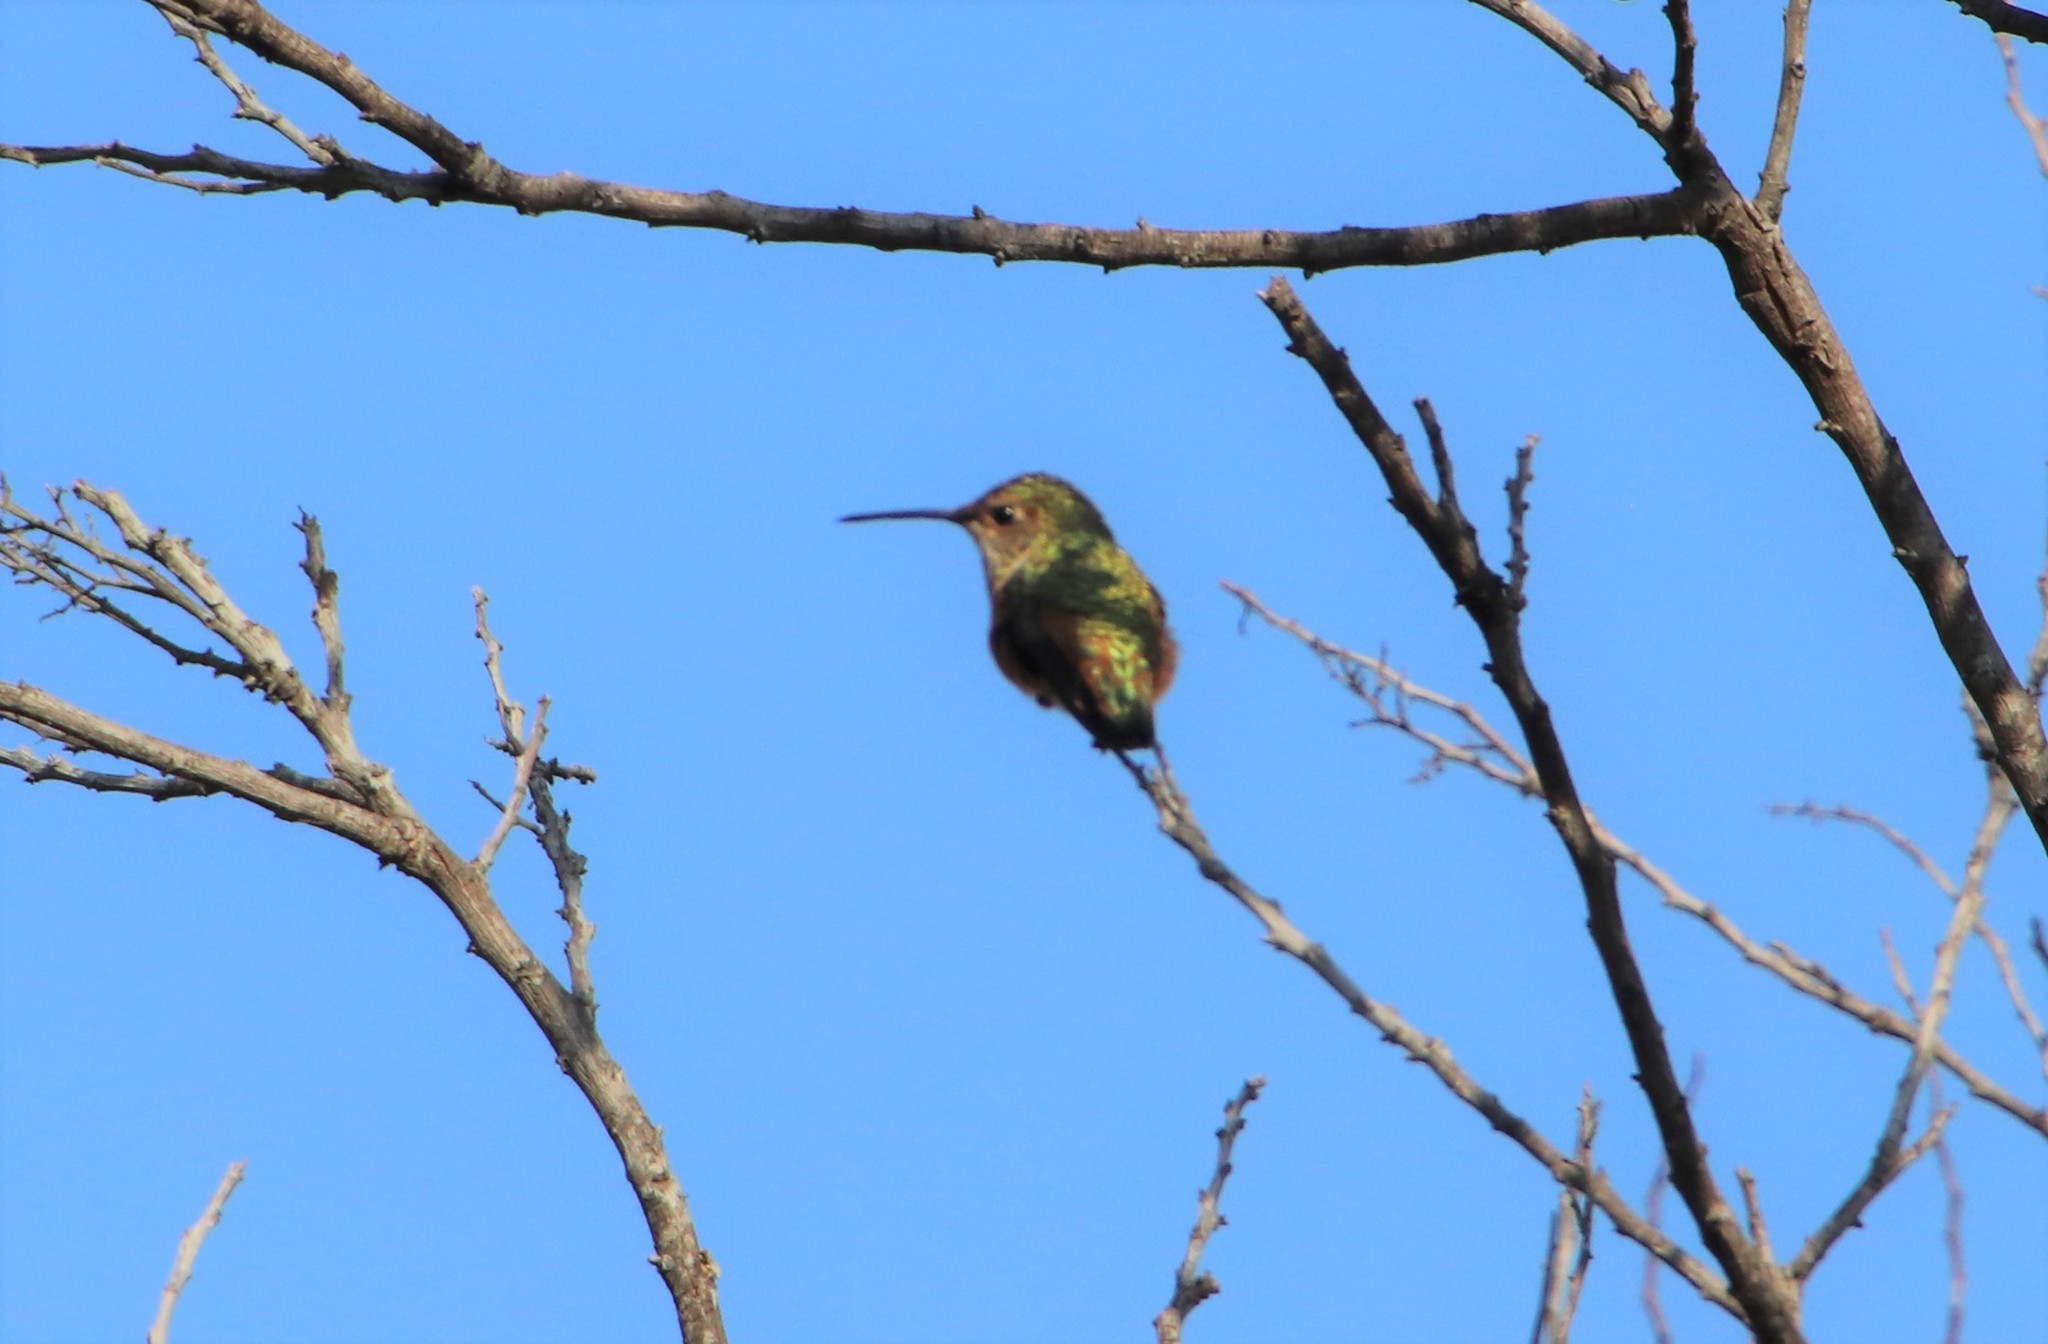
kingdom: Animalia
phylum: Chordata
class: Aves
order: Apodiformes
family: Trochilidae
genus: Selasphorus
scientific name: Selasphorus
